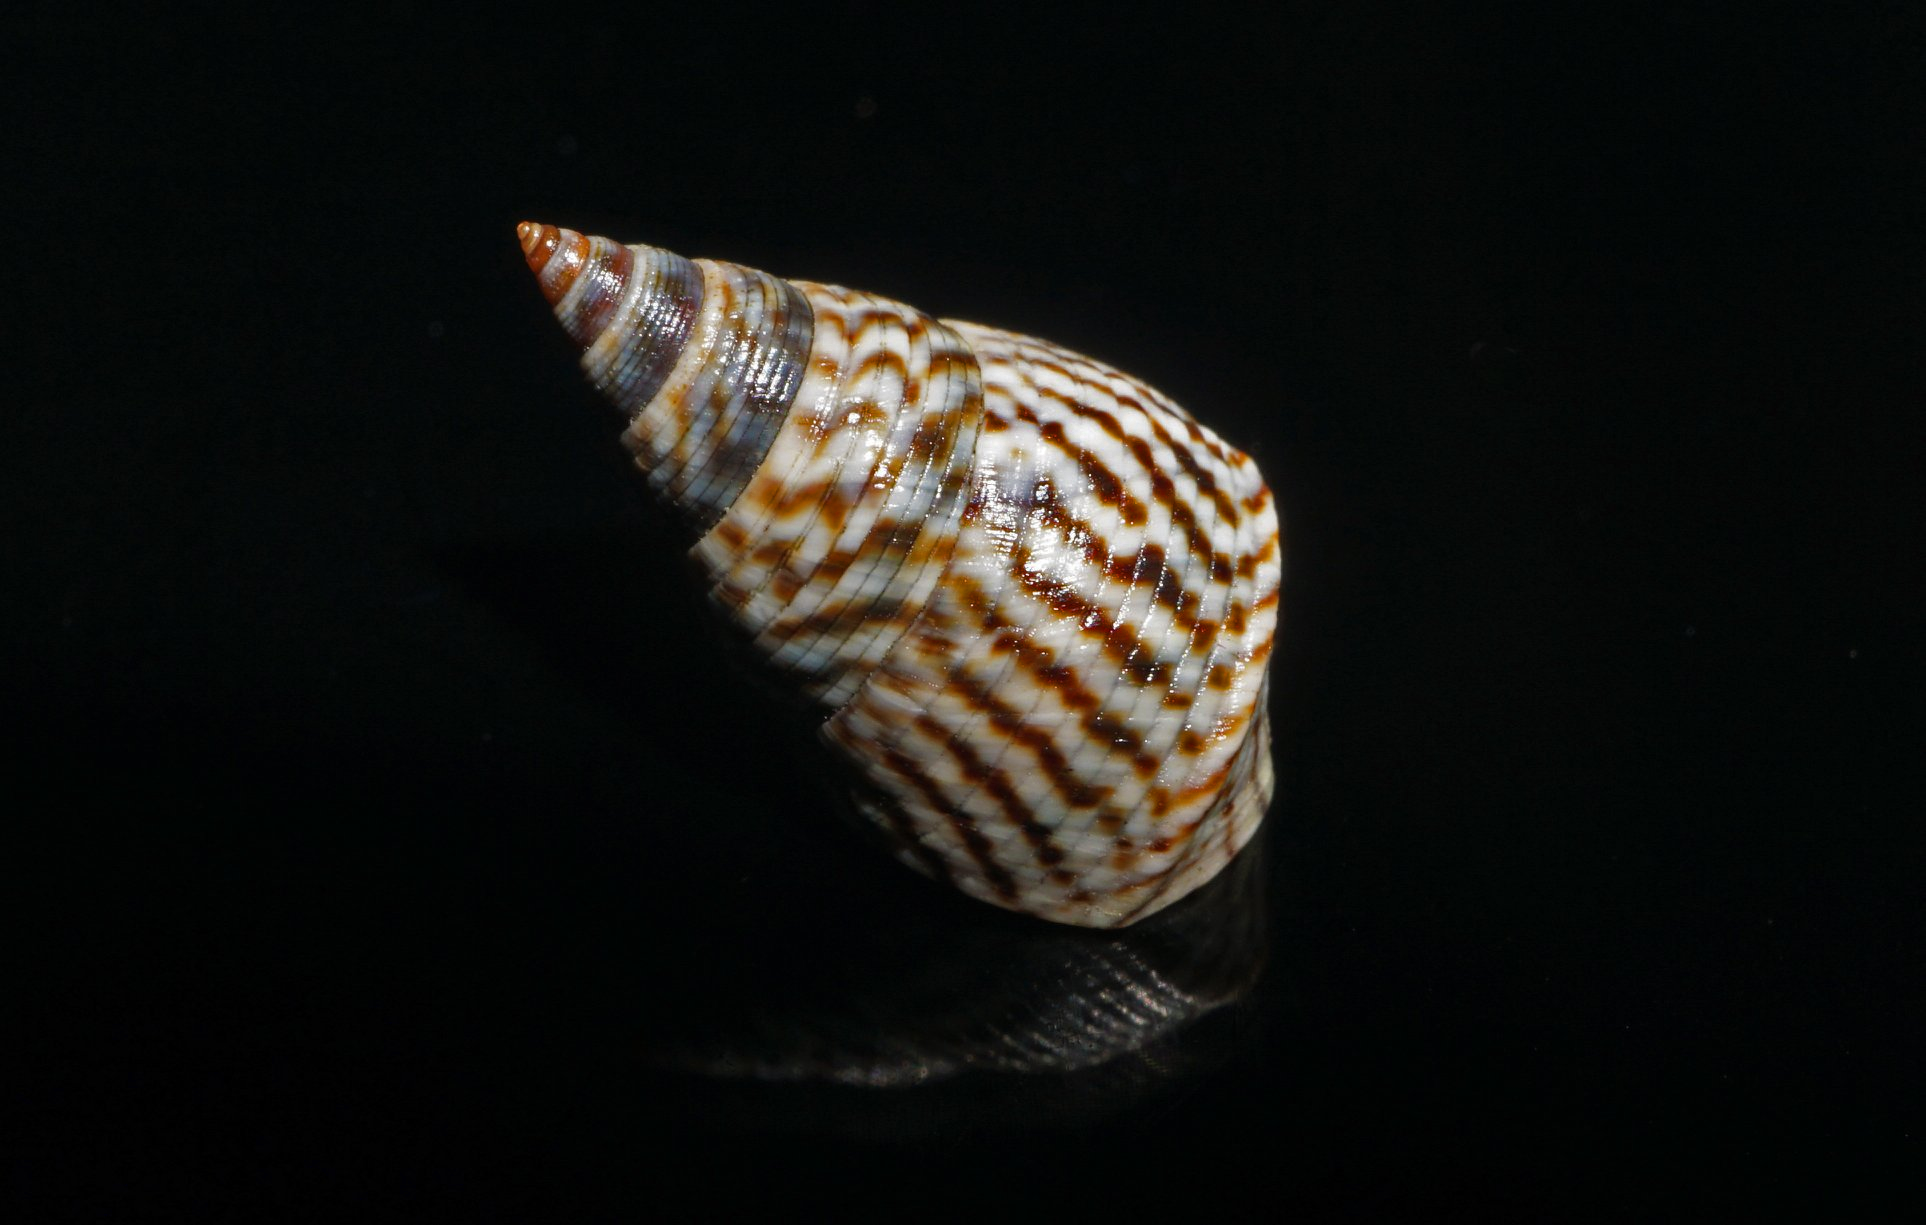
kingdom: Animalia
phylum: Mollusca
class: Gastropoda
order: Littorinimorpha
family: Littorinidae
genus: Echinolittorina
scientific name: Echinolittorina angustior
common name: Slender periwinkle
